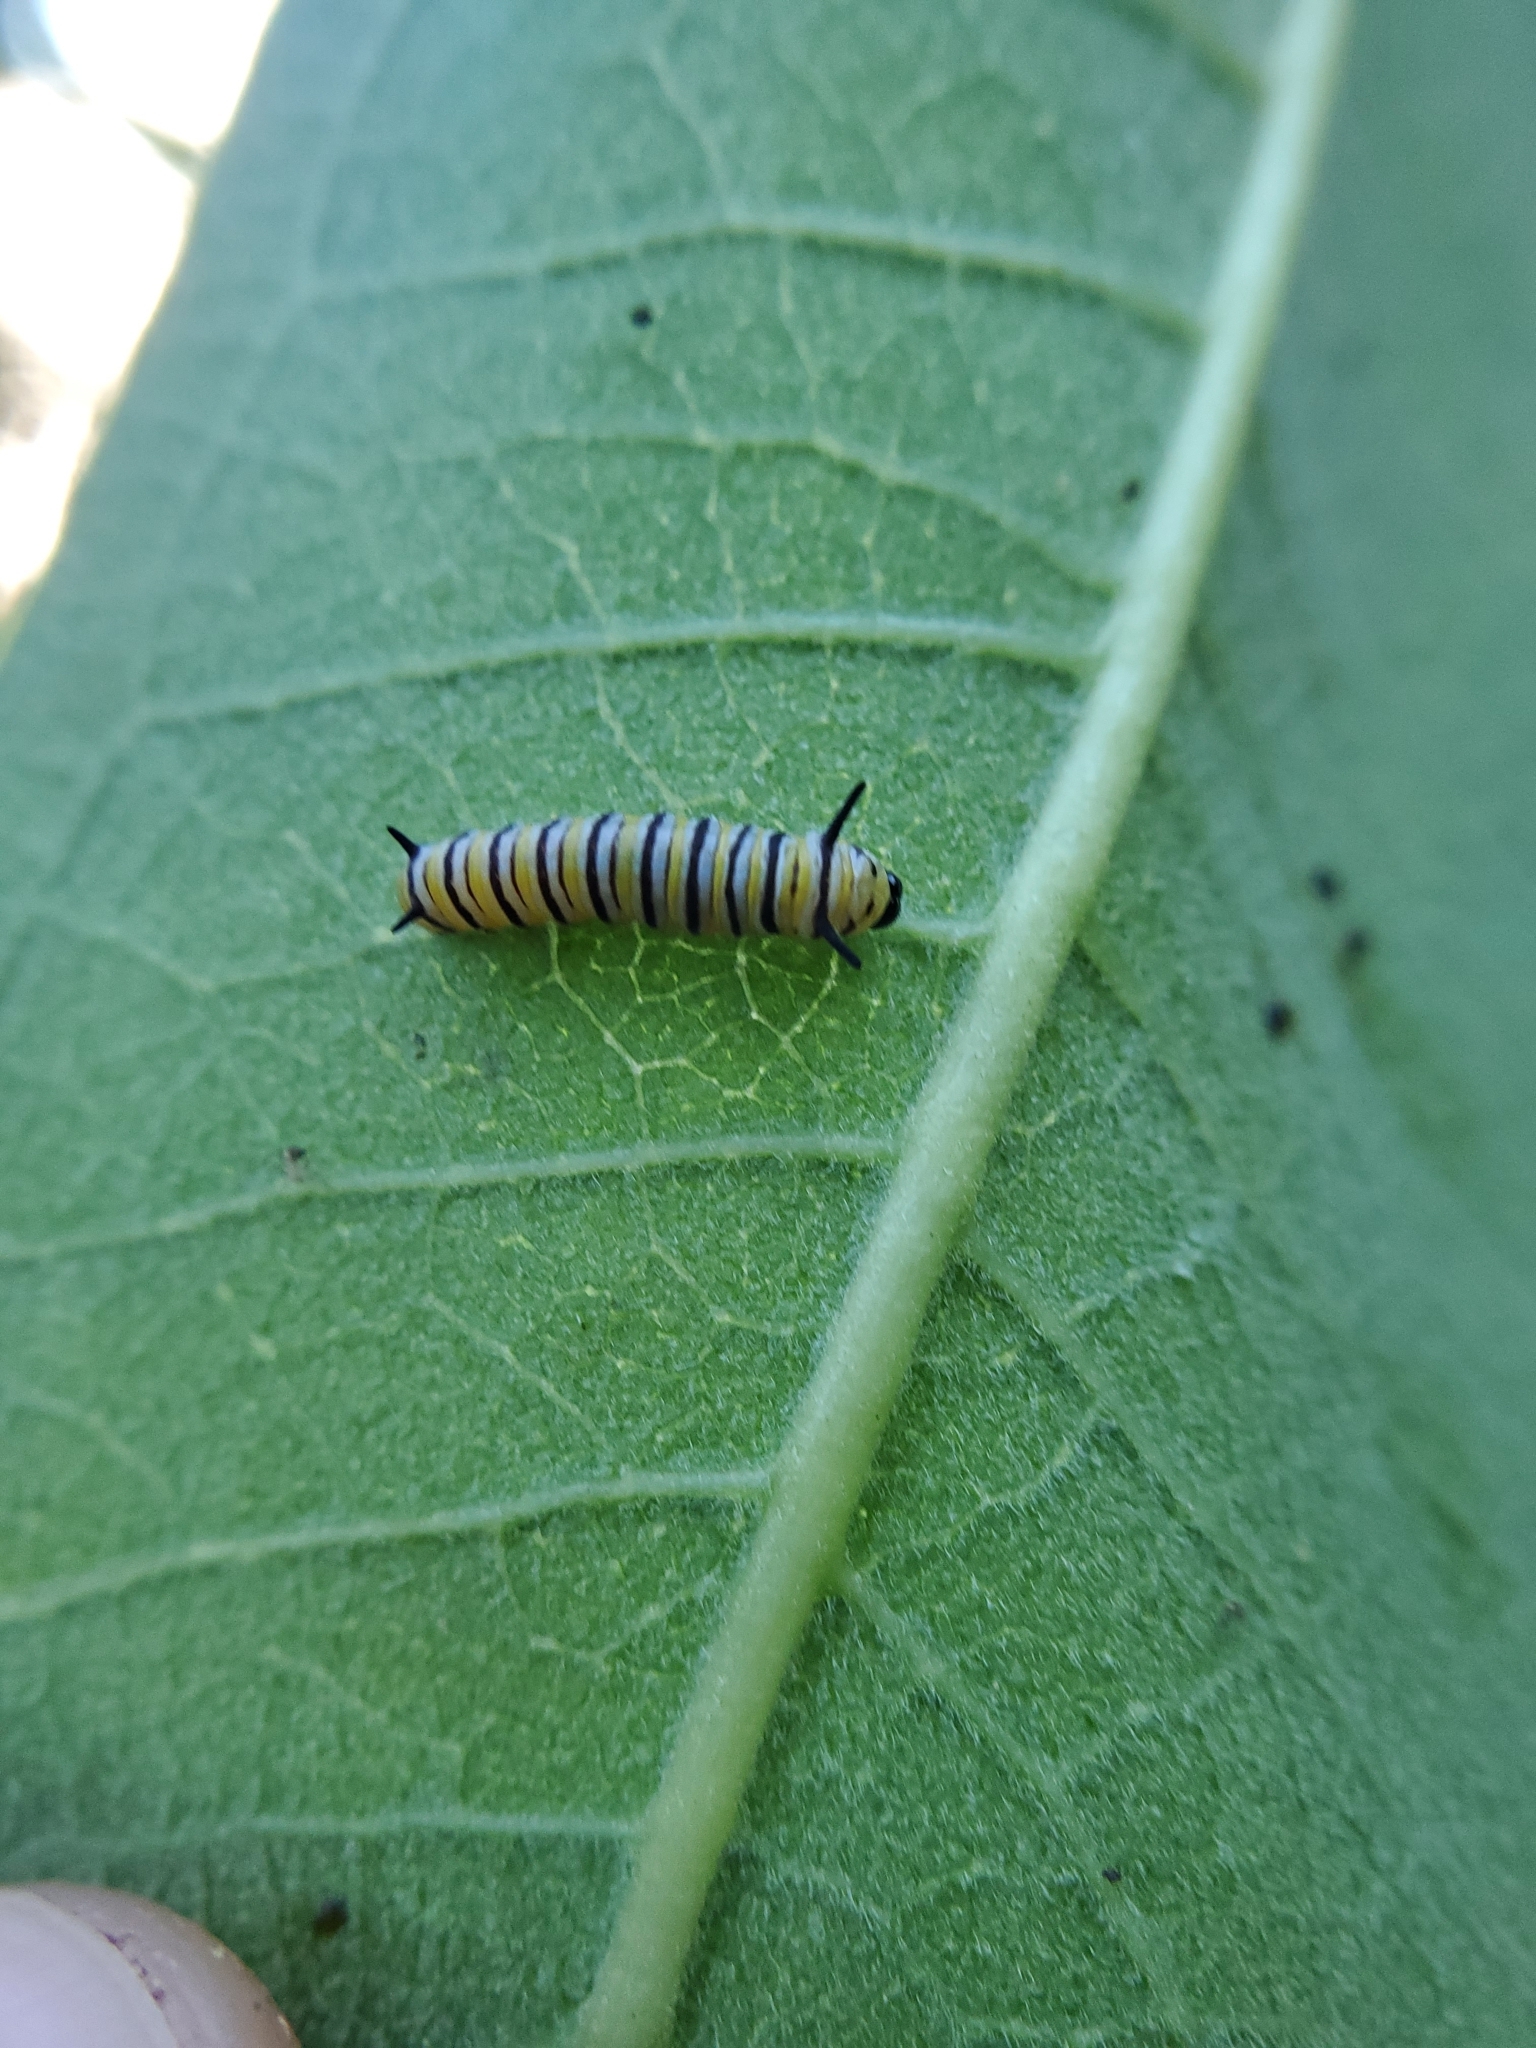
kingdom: Animalia
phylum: Arthropoda
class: Insecta
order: Lepidoptera
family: Nymphalidae
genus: Danaus
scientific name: Danaus plexippus
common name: Monarch
